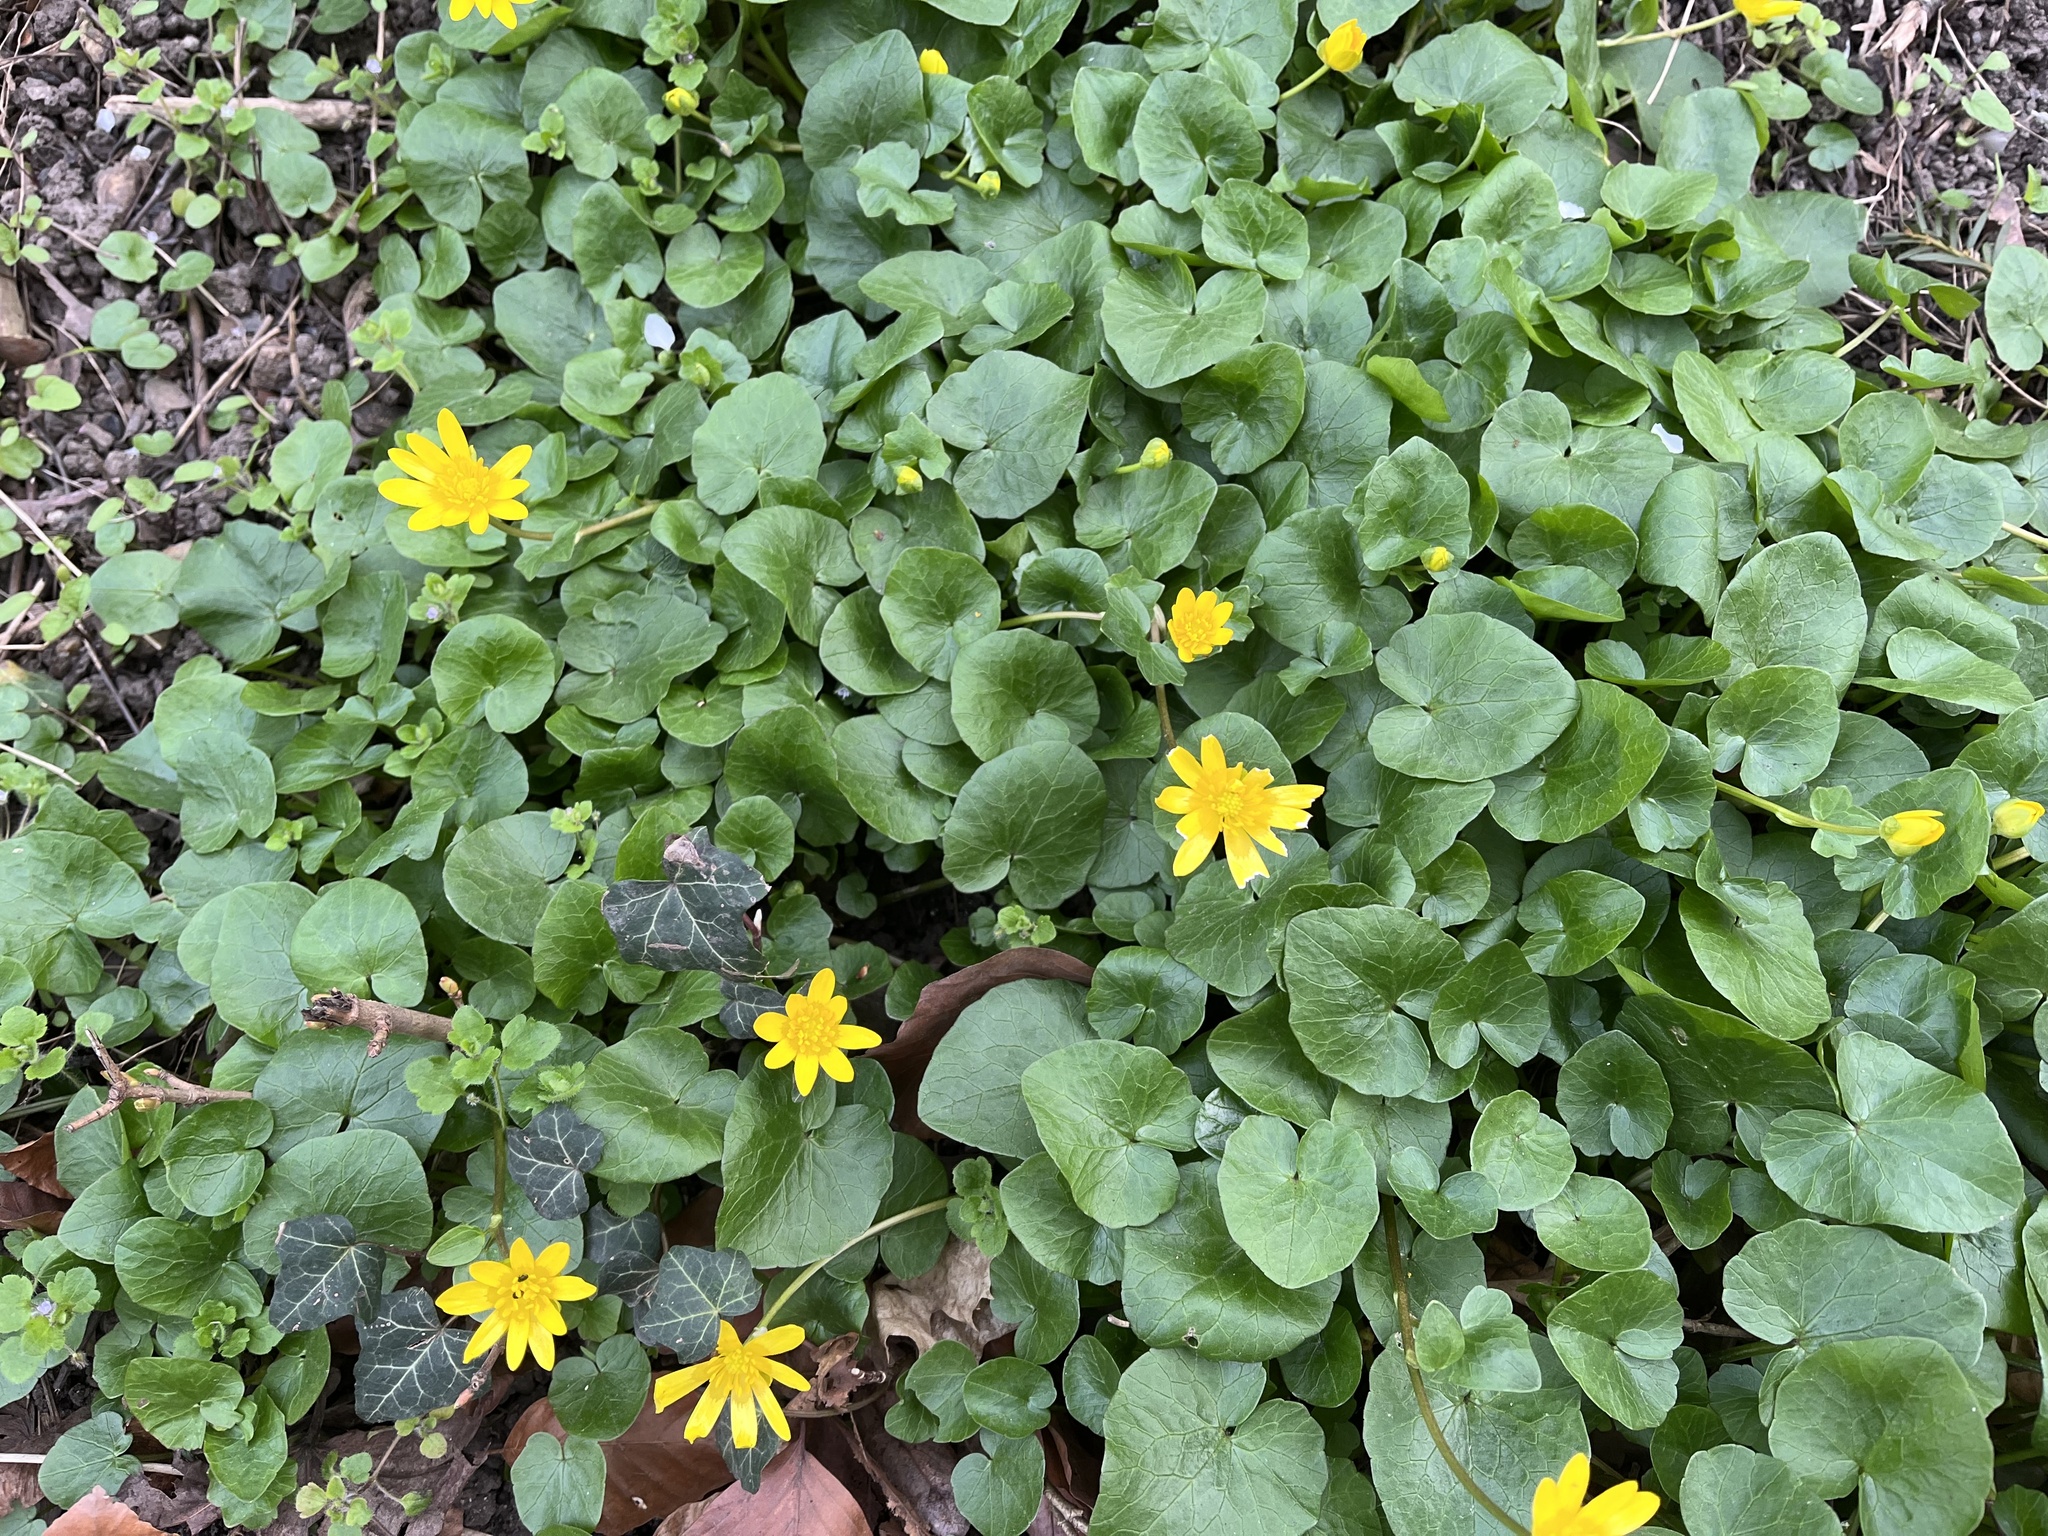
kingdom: Plantae
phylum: Tracheophyta
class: Magnoliopsida
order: Ranunculales
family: Ranunculaceae
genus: Ficaria
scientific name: Ficaria verna
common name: Lesser celandine
